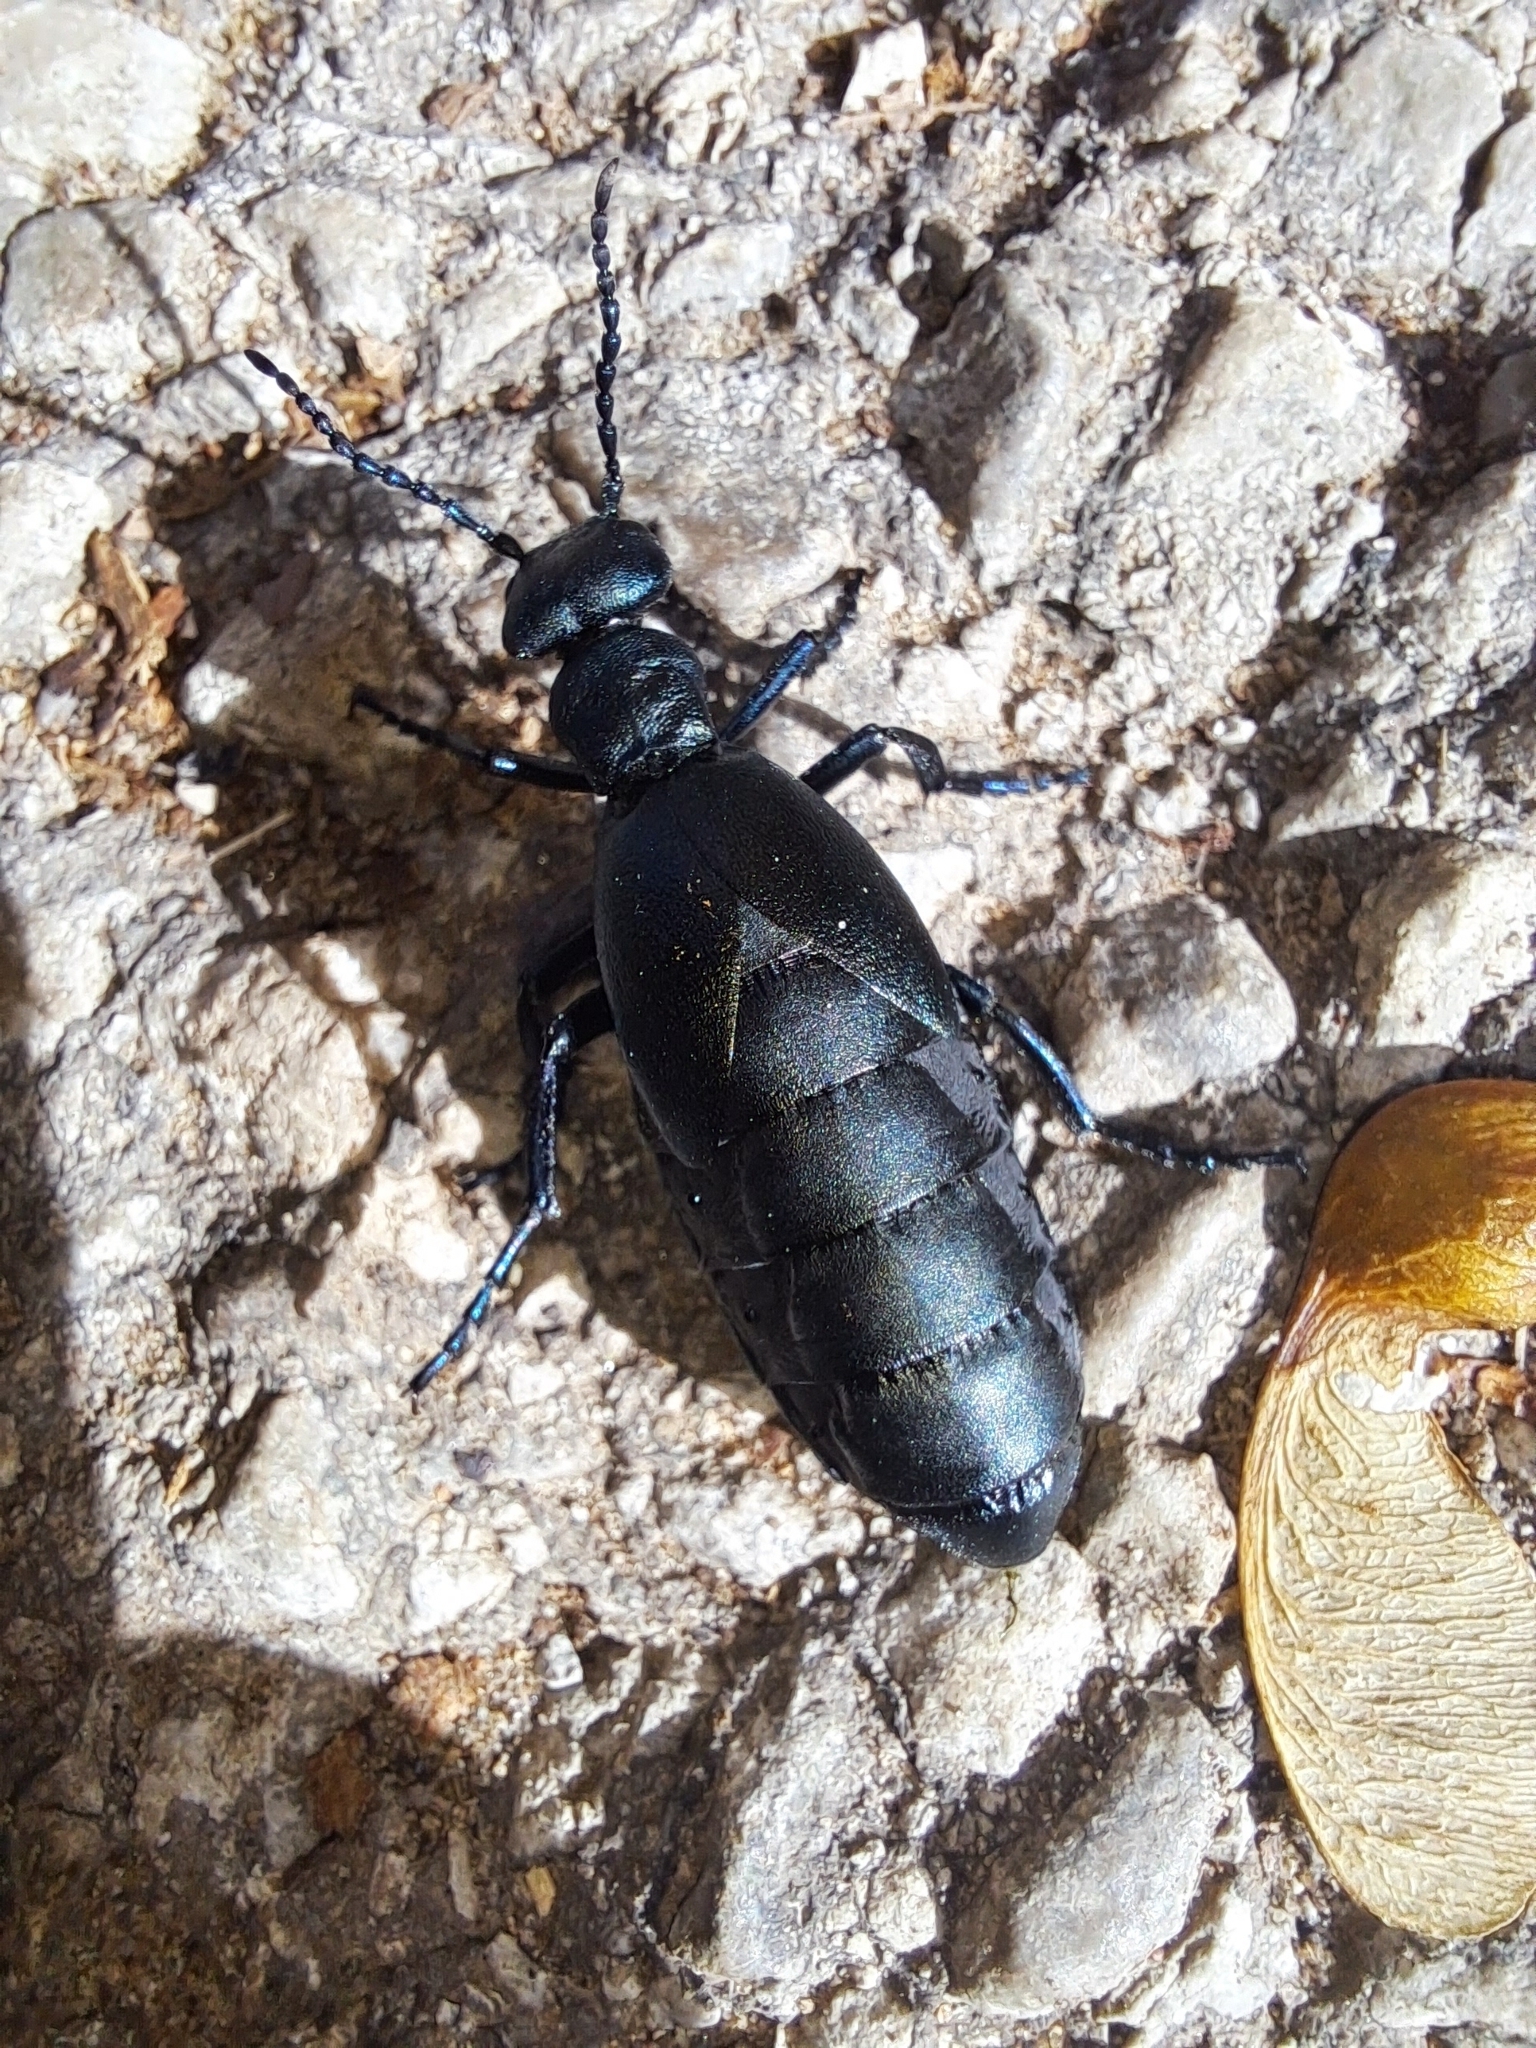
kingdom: Animalia
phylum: Arthropoda
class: Insecta
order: Coleoptera
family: Meloidae
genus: Meloe
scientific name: Meloe campanicollis
